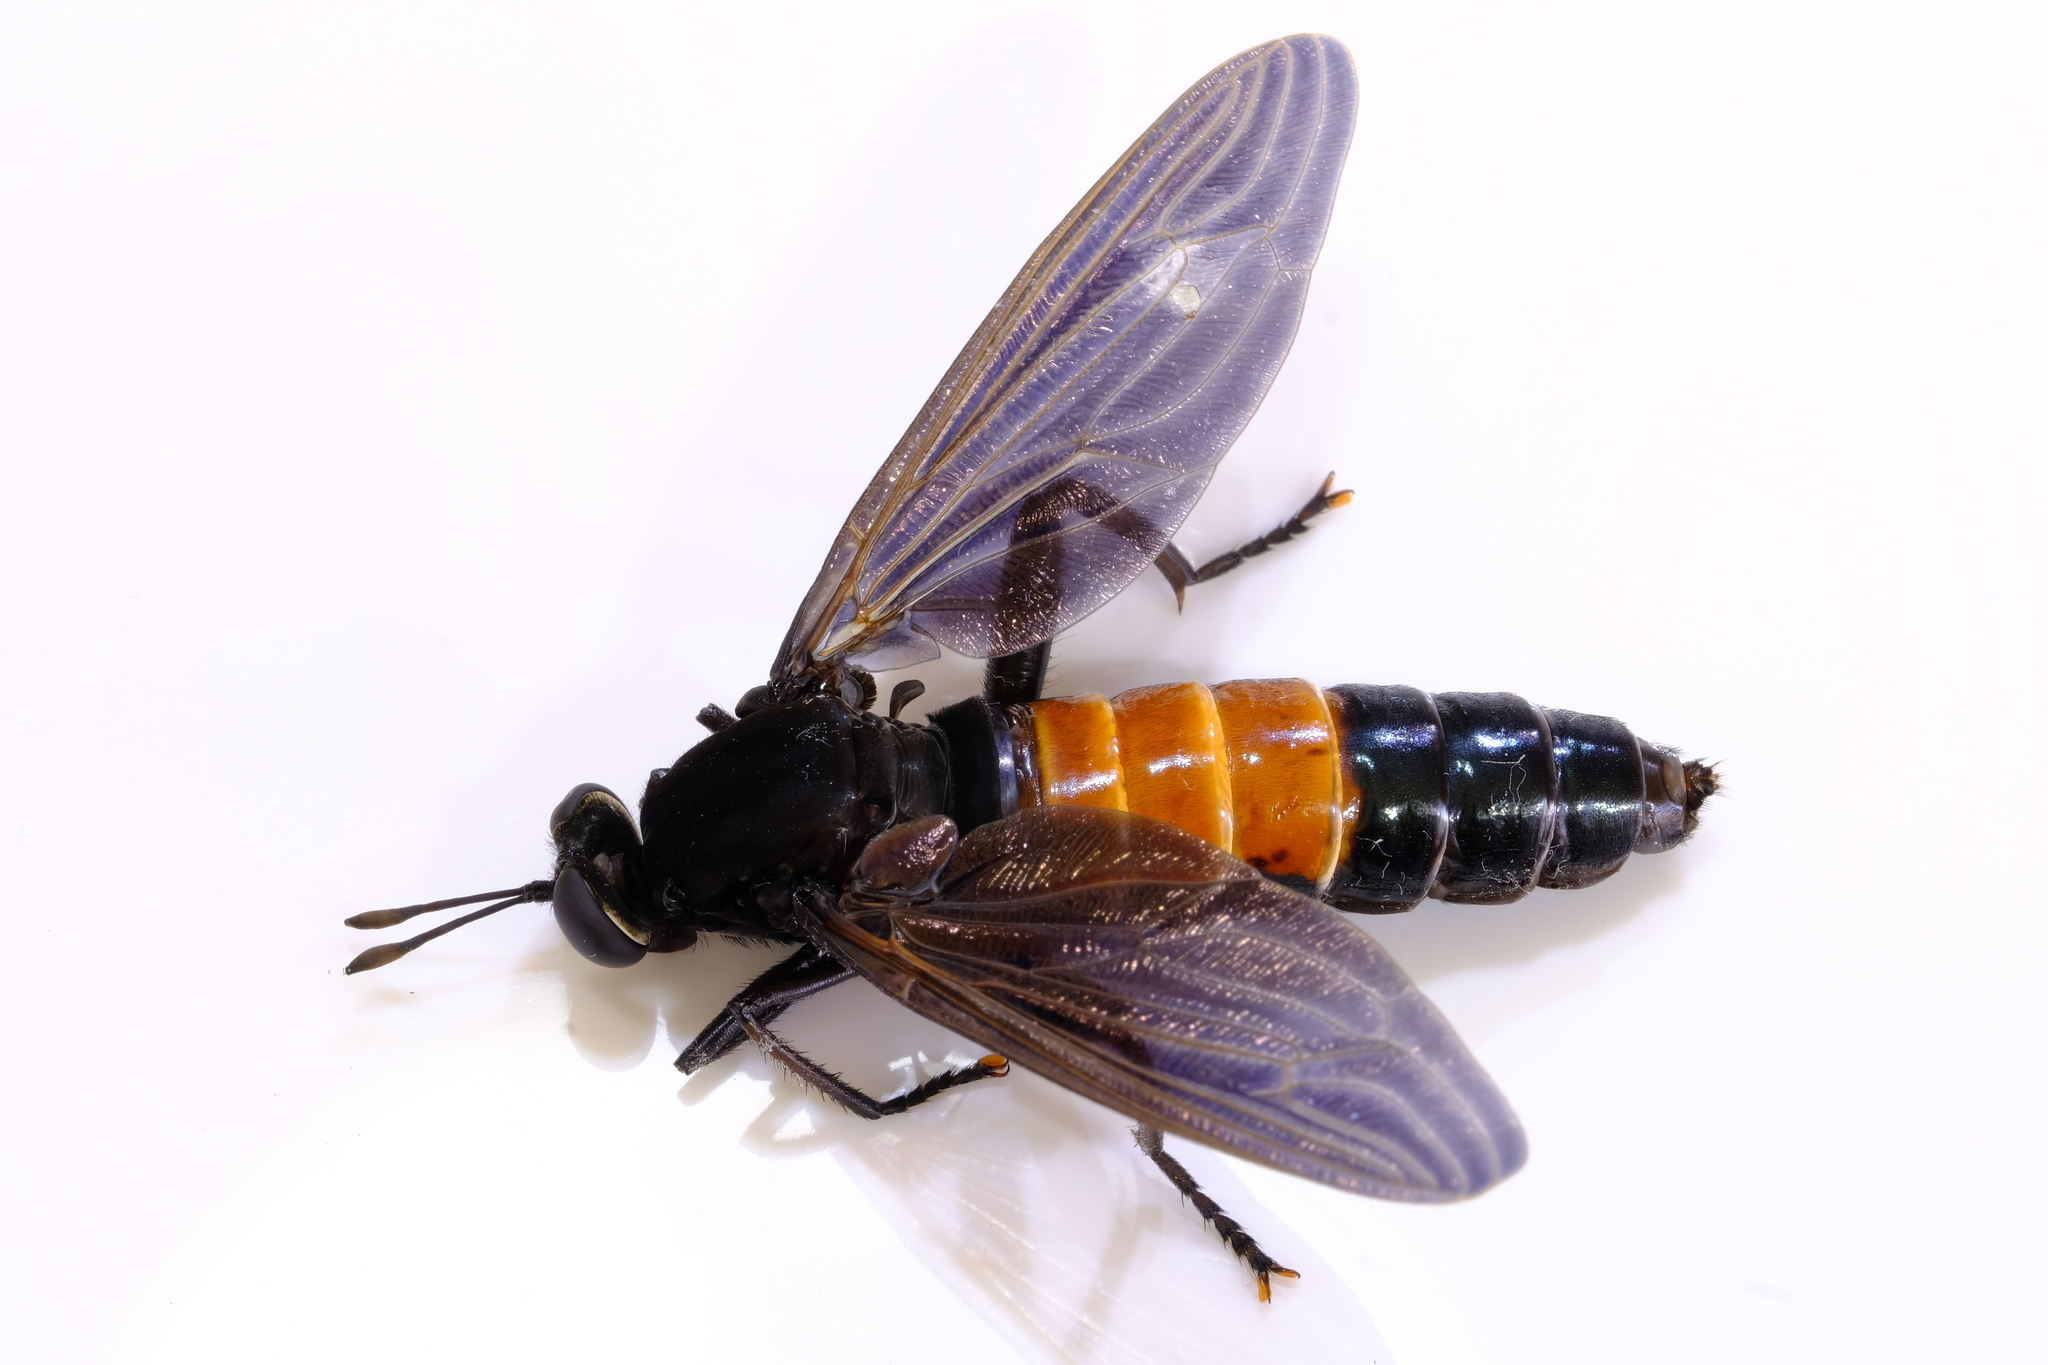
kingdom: Animalia
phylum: Arthropoda
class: Insecta
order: Diptera
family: Mydidae
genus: Mydas
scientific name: Mydas fulvifrons
